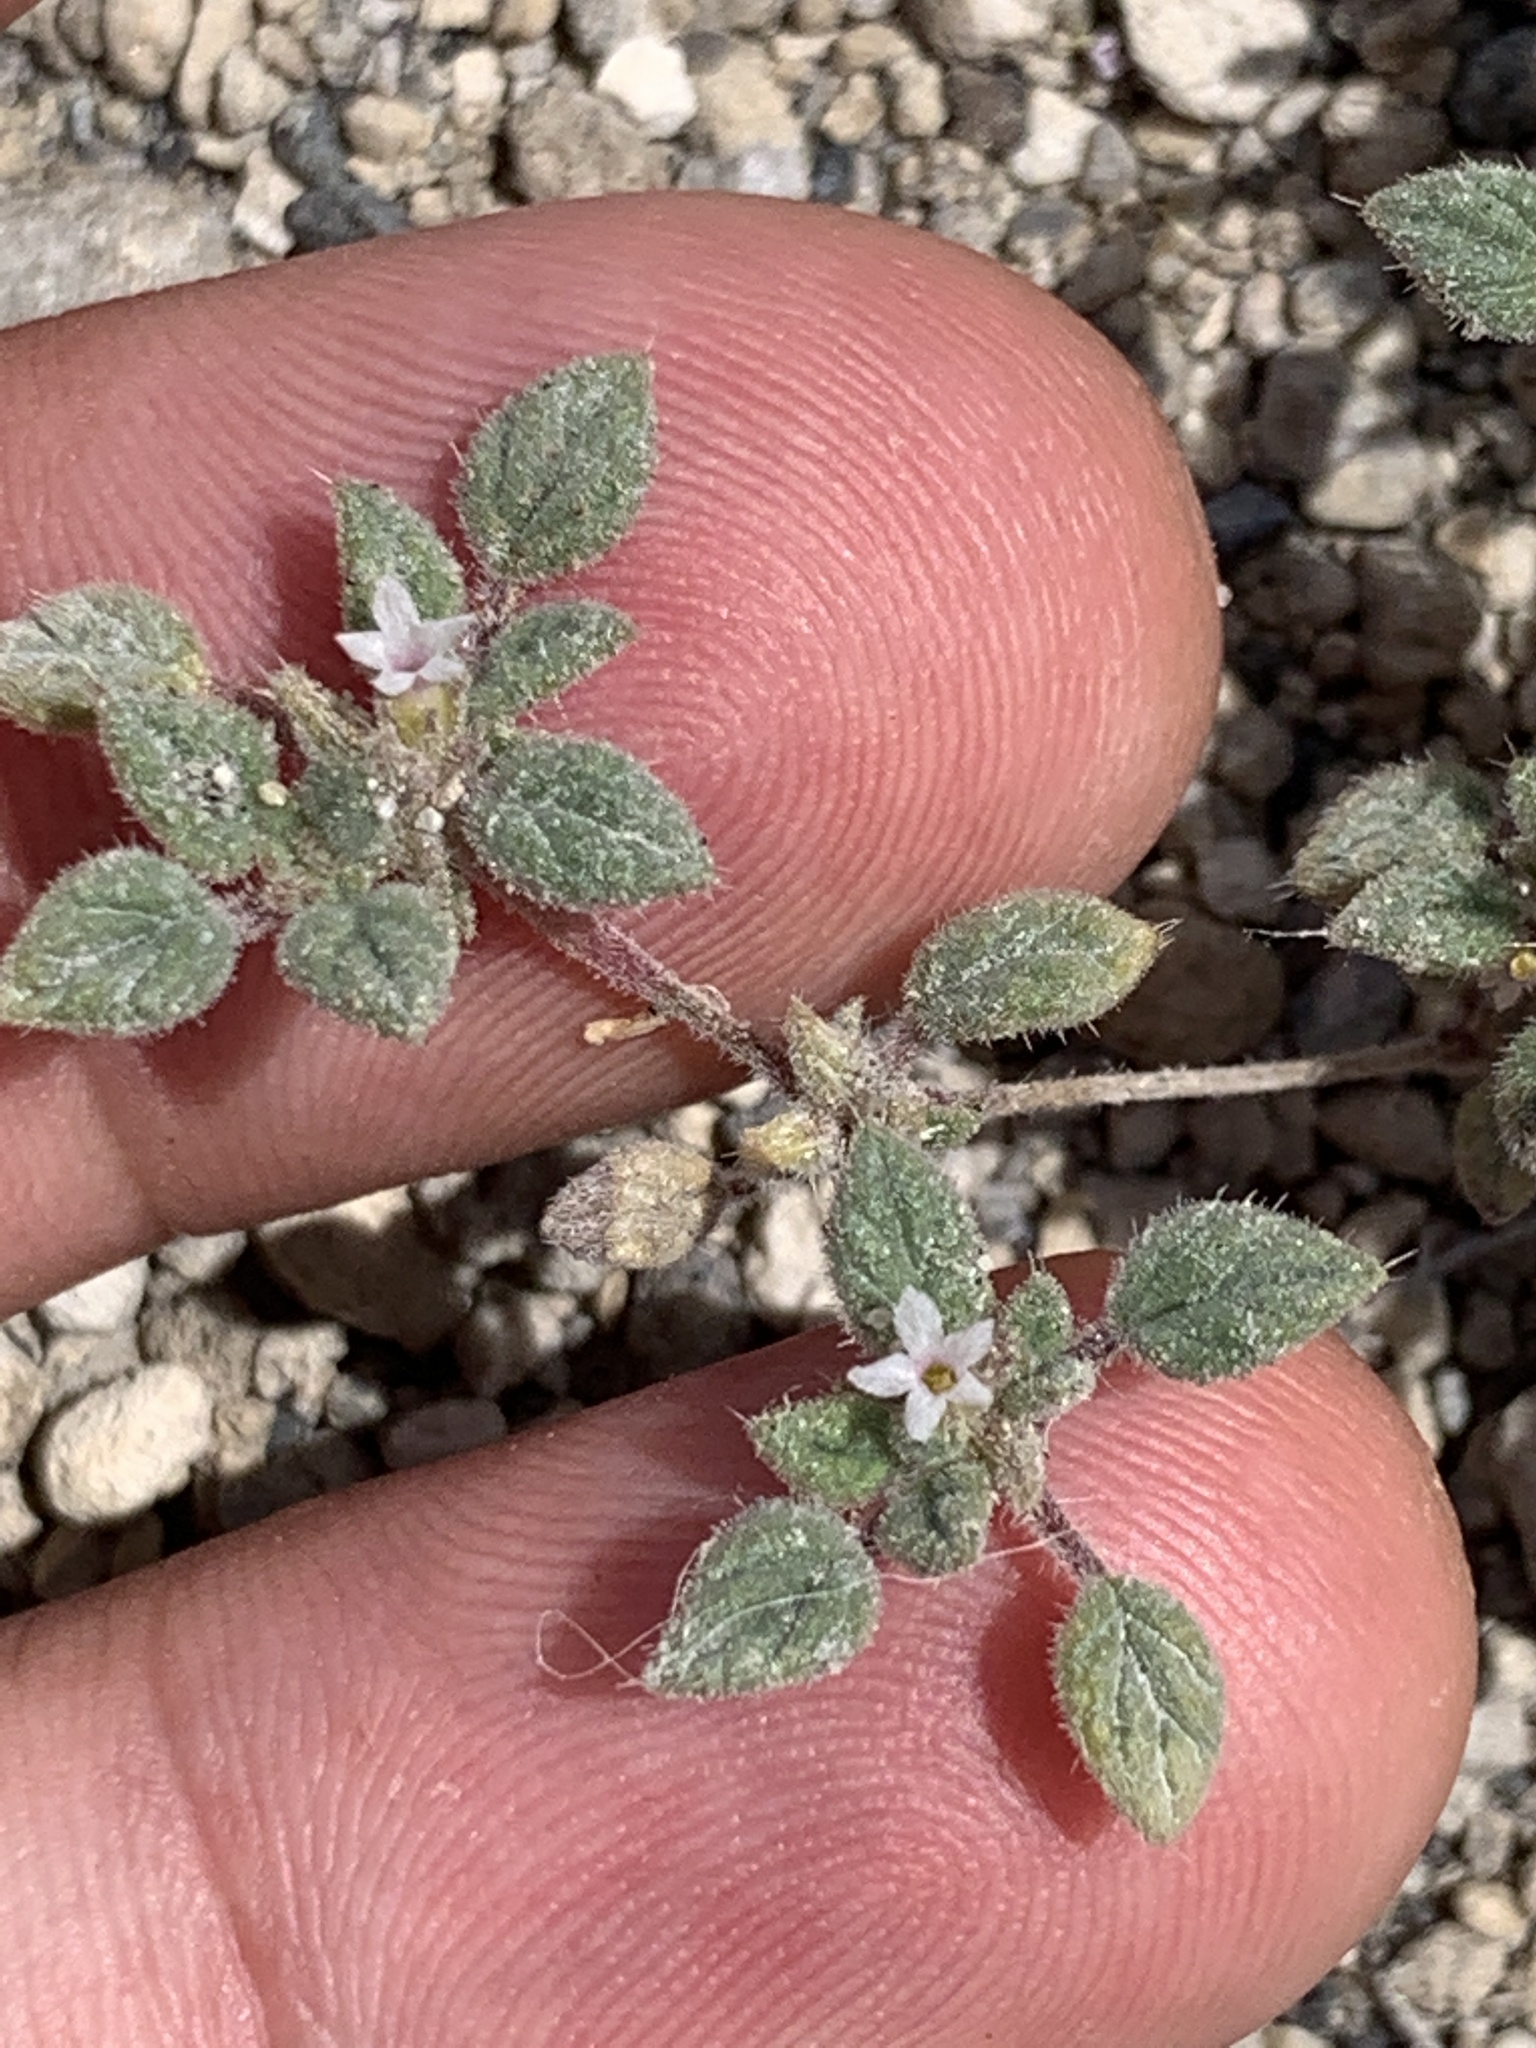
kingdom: Plantae
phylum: Tracheophyta
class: Magnoliopsida
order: Boraginales
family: Ehretiaceae
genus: Tiquilia
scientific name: Tiquilia nuttallii
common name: Rosette tiquilia
